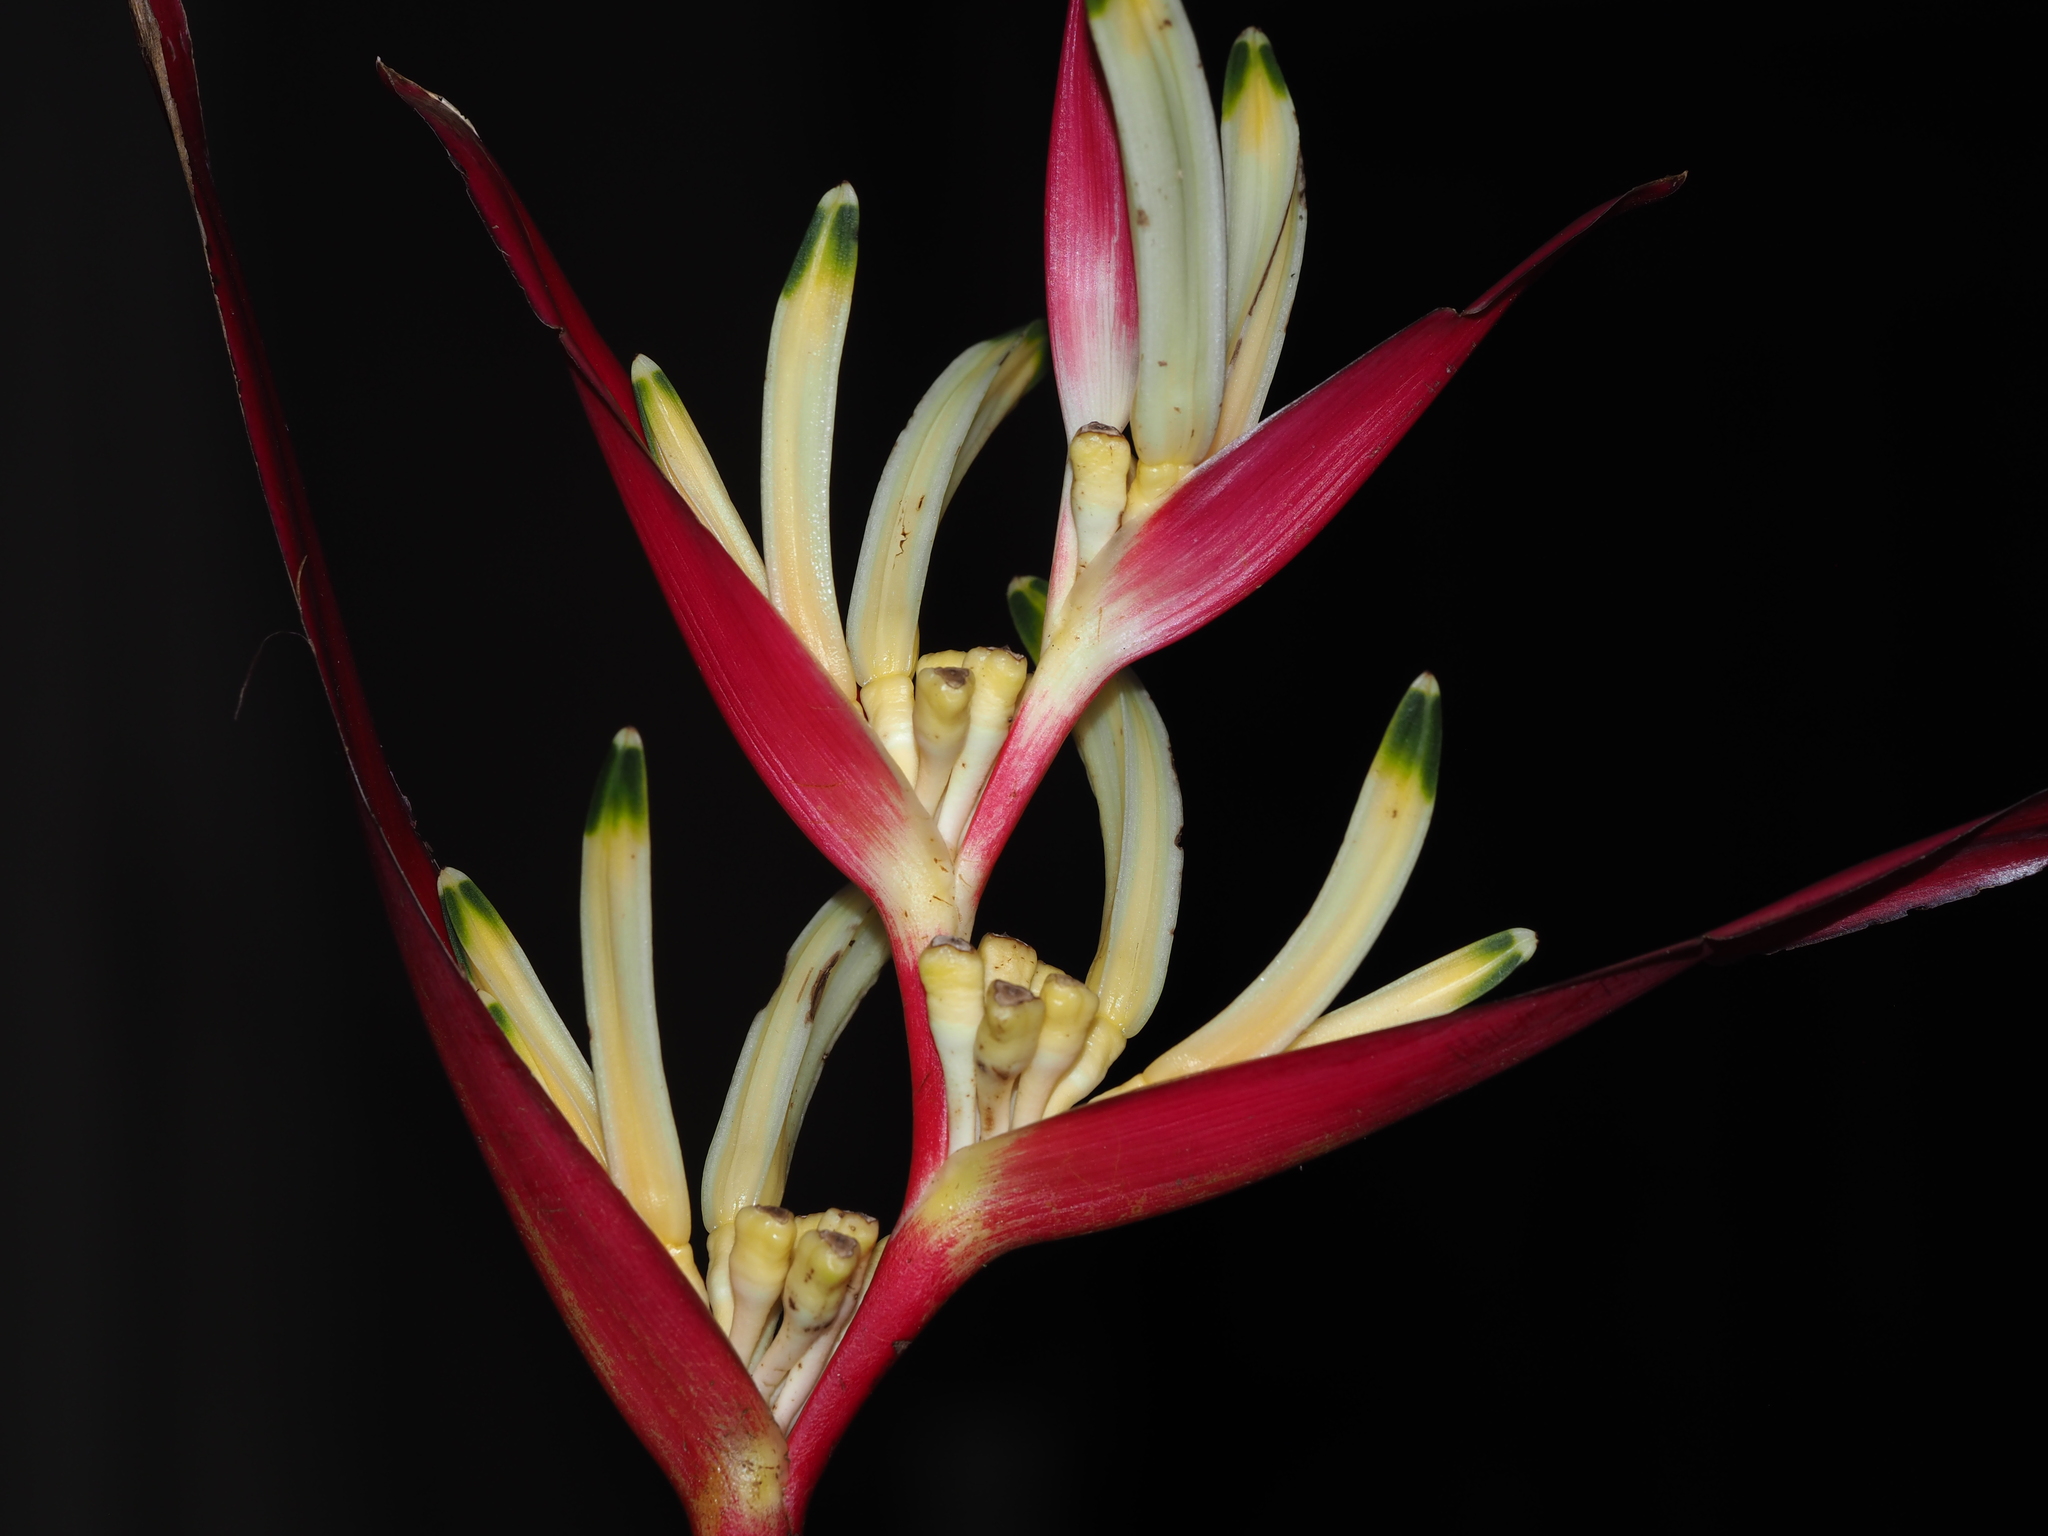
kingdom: Plantae
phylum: Tracheophyta
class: Liliopsida
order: Zingiberales
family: Heliconiaceae
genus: Heliconia
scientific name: Heliconia psittacorum
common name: Parrot's-flower
